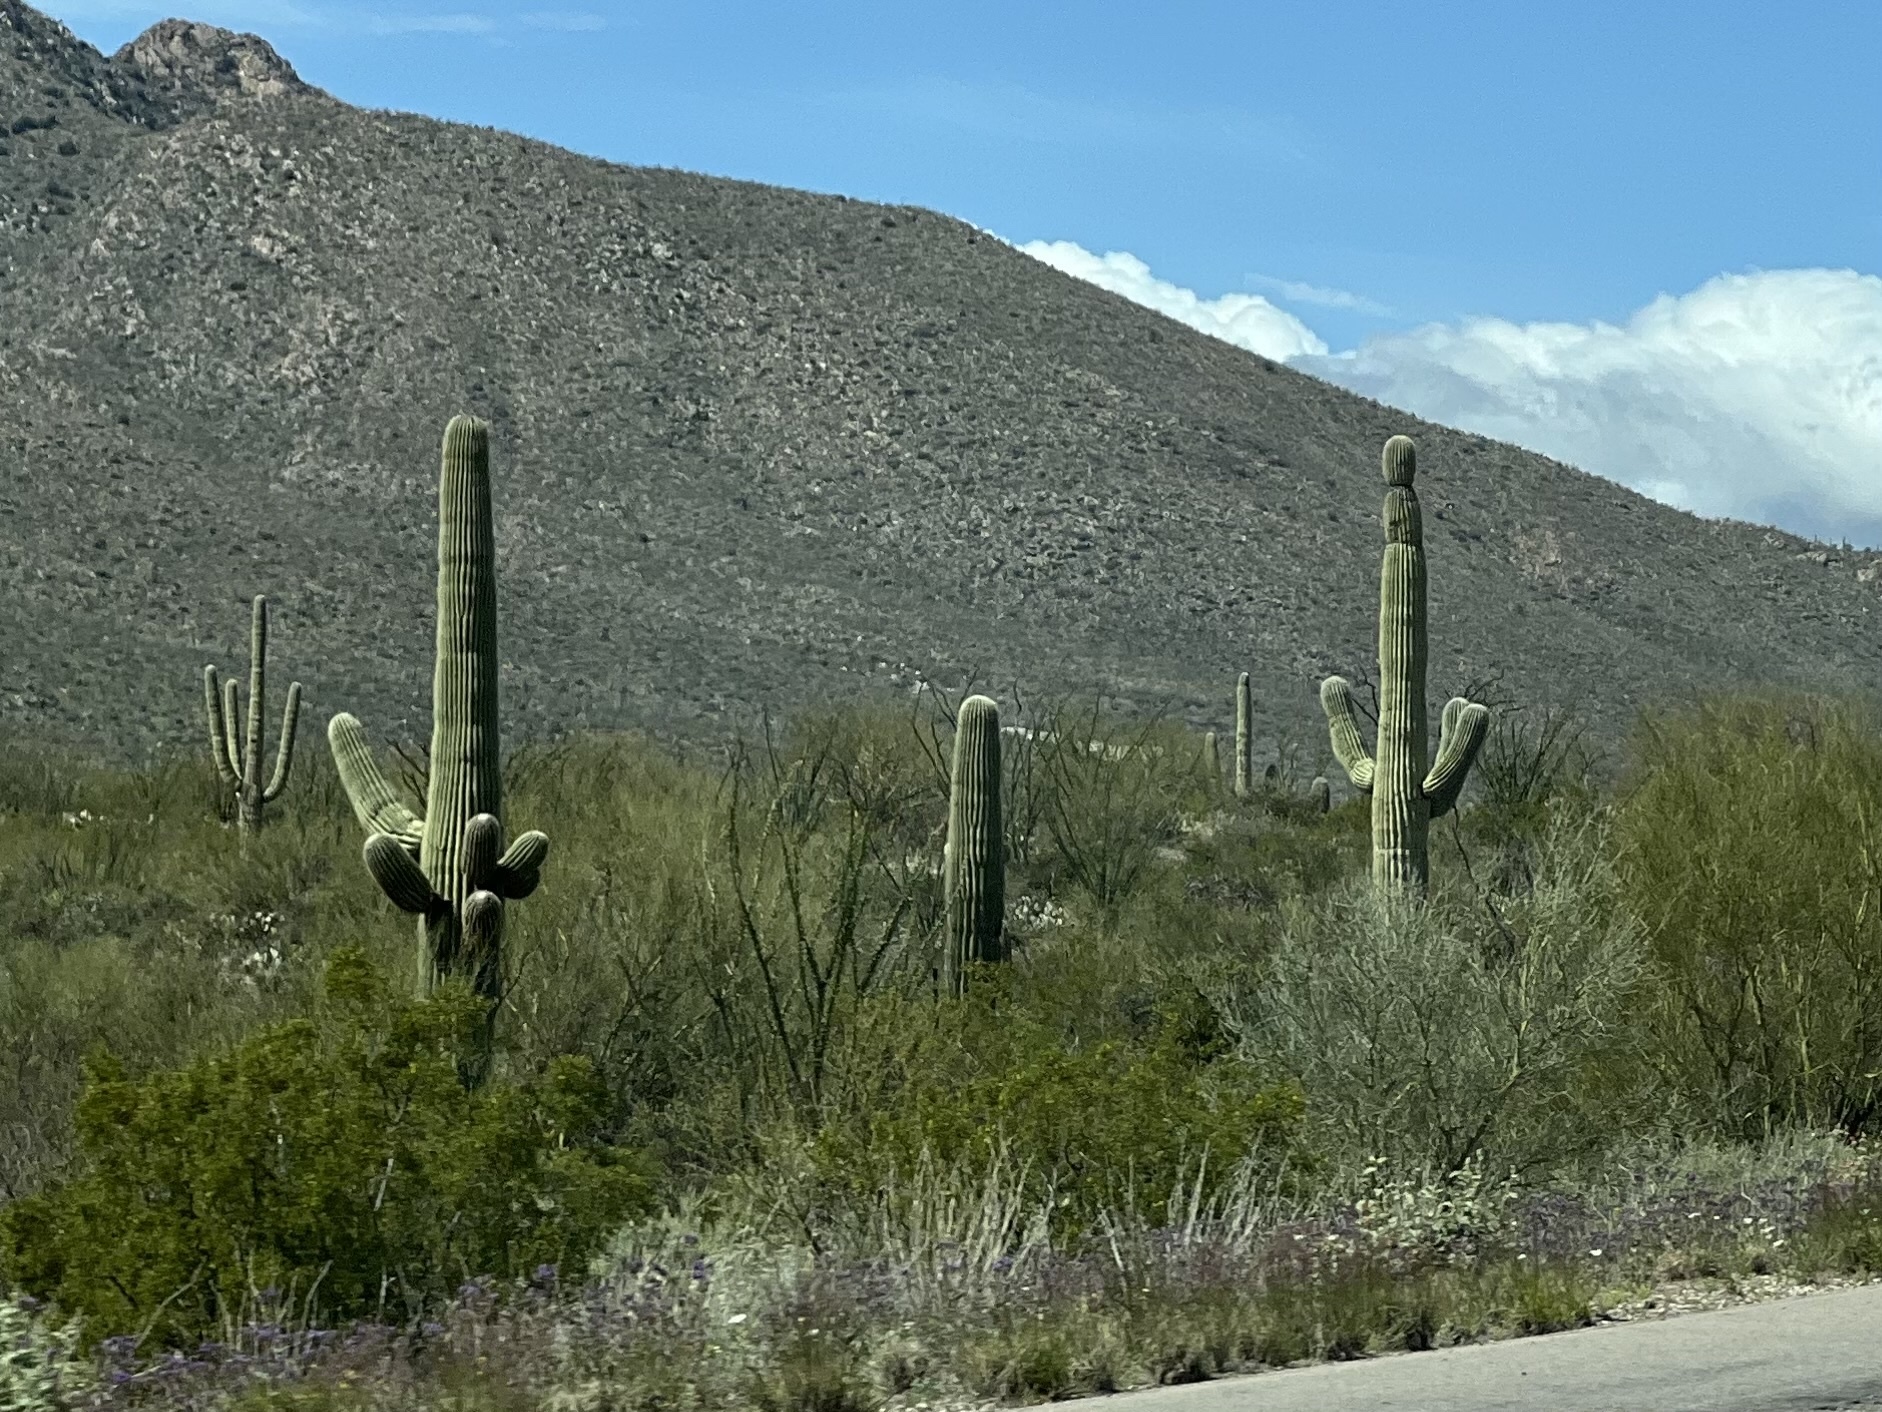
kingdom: Plantae
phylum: Tracheophyta
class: Magnoliopsida
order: Caryophyllales
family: Cactaceae
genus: Carnegiea
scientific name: Carnegiea gigantea
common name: Saguaro
